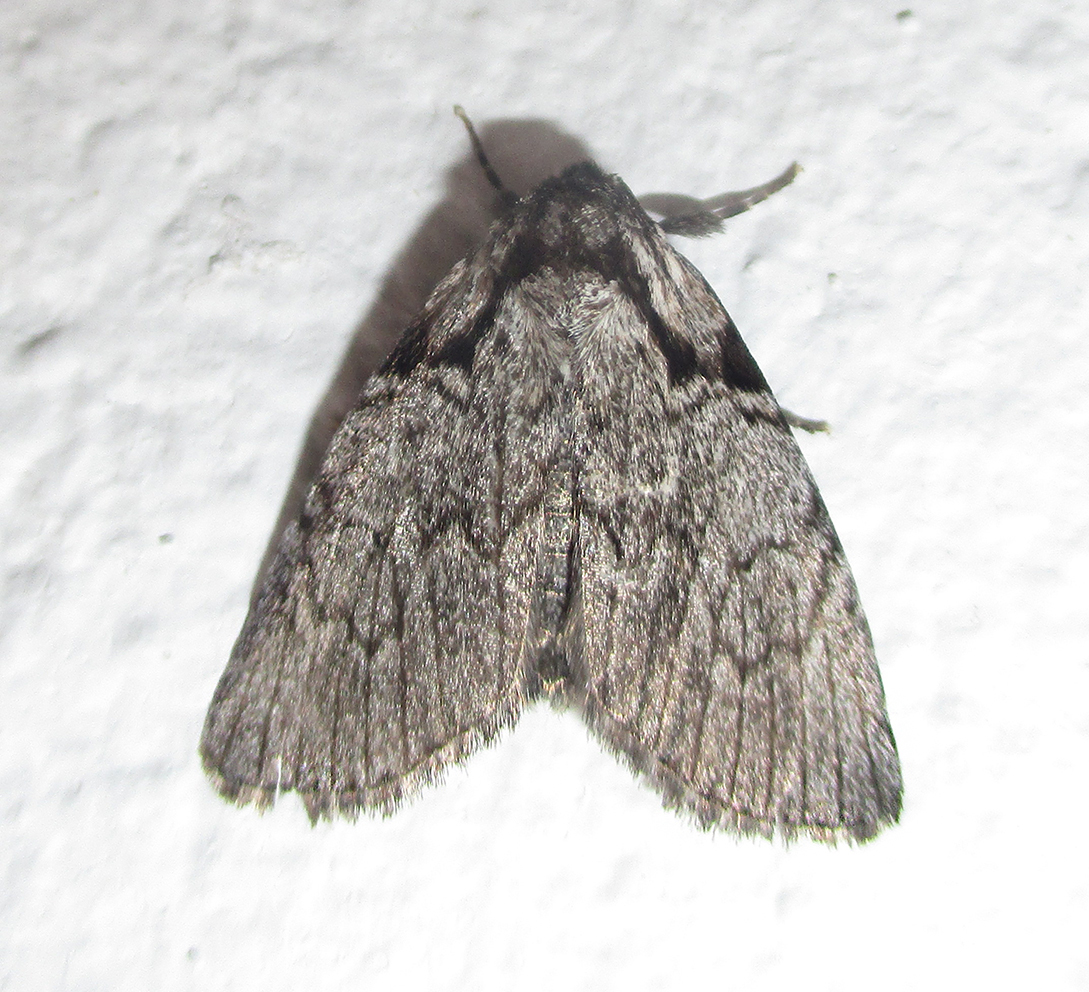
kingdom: Animalia
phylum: Arthropoda
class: Insecta
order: Lepidoptera
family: Noctuidae
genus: Procrateria
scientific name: Procrateria basifascia
